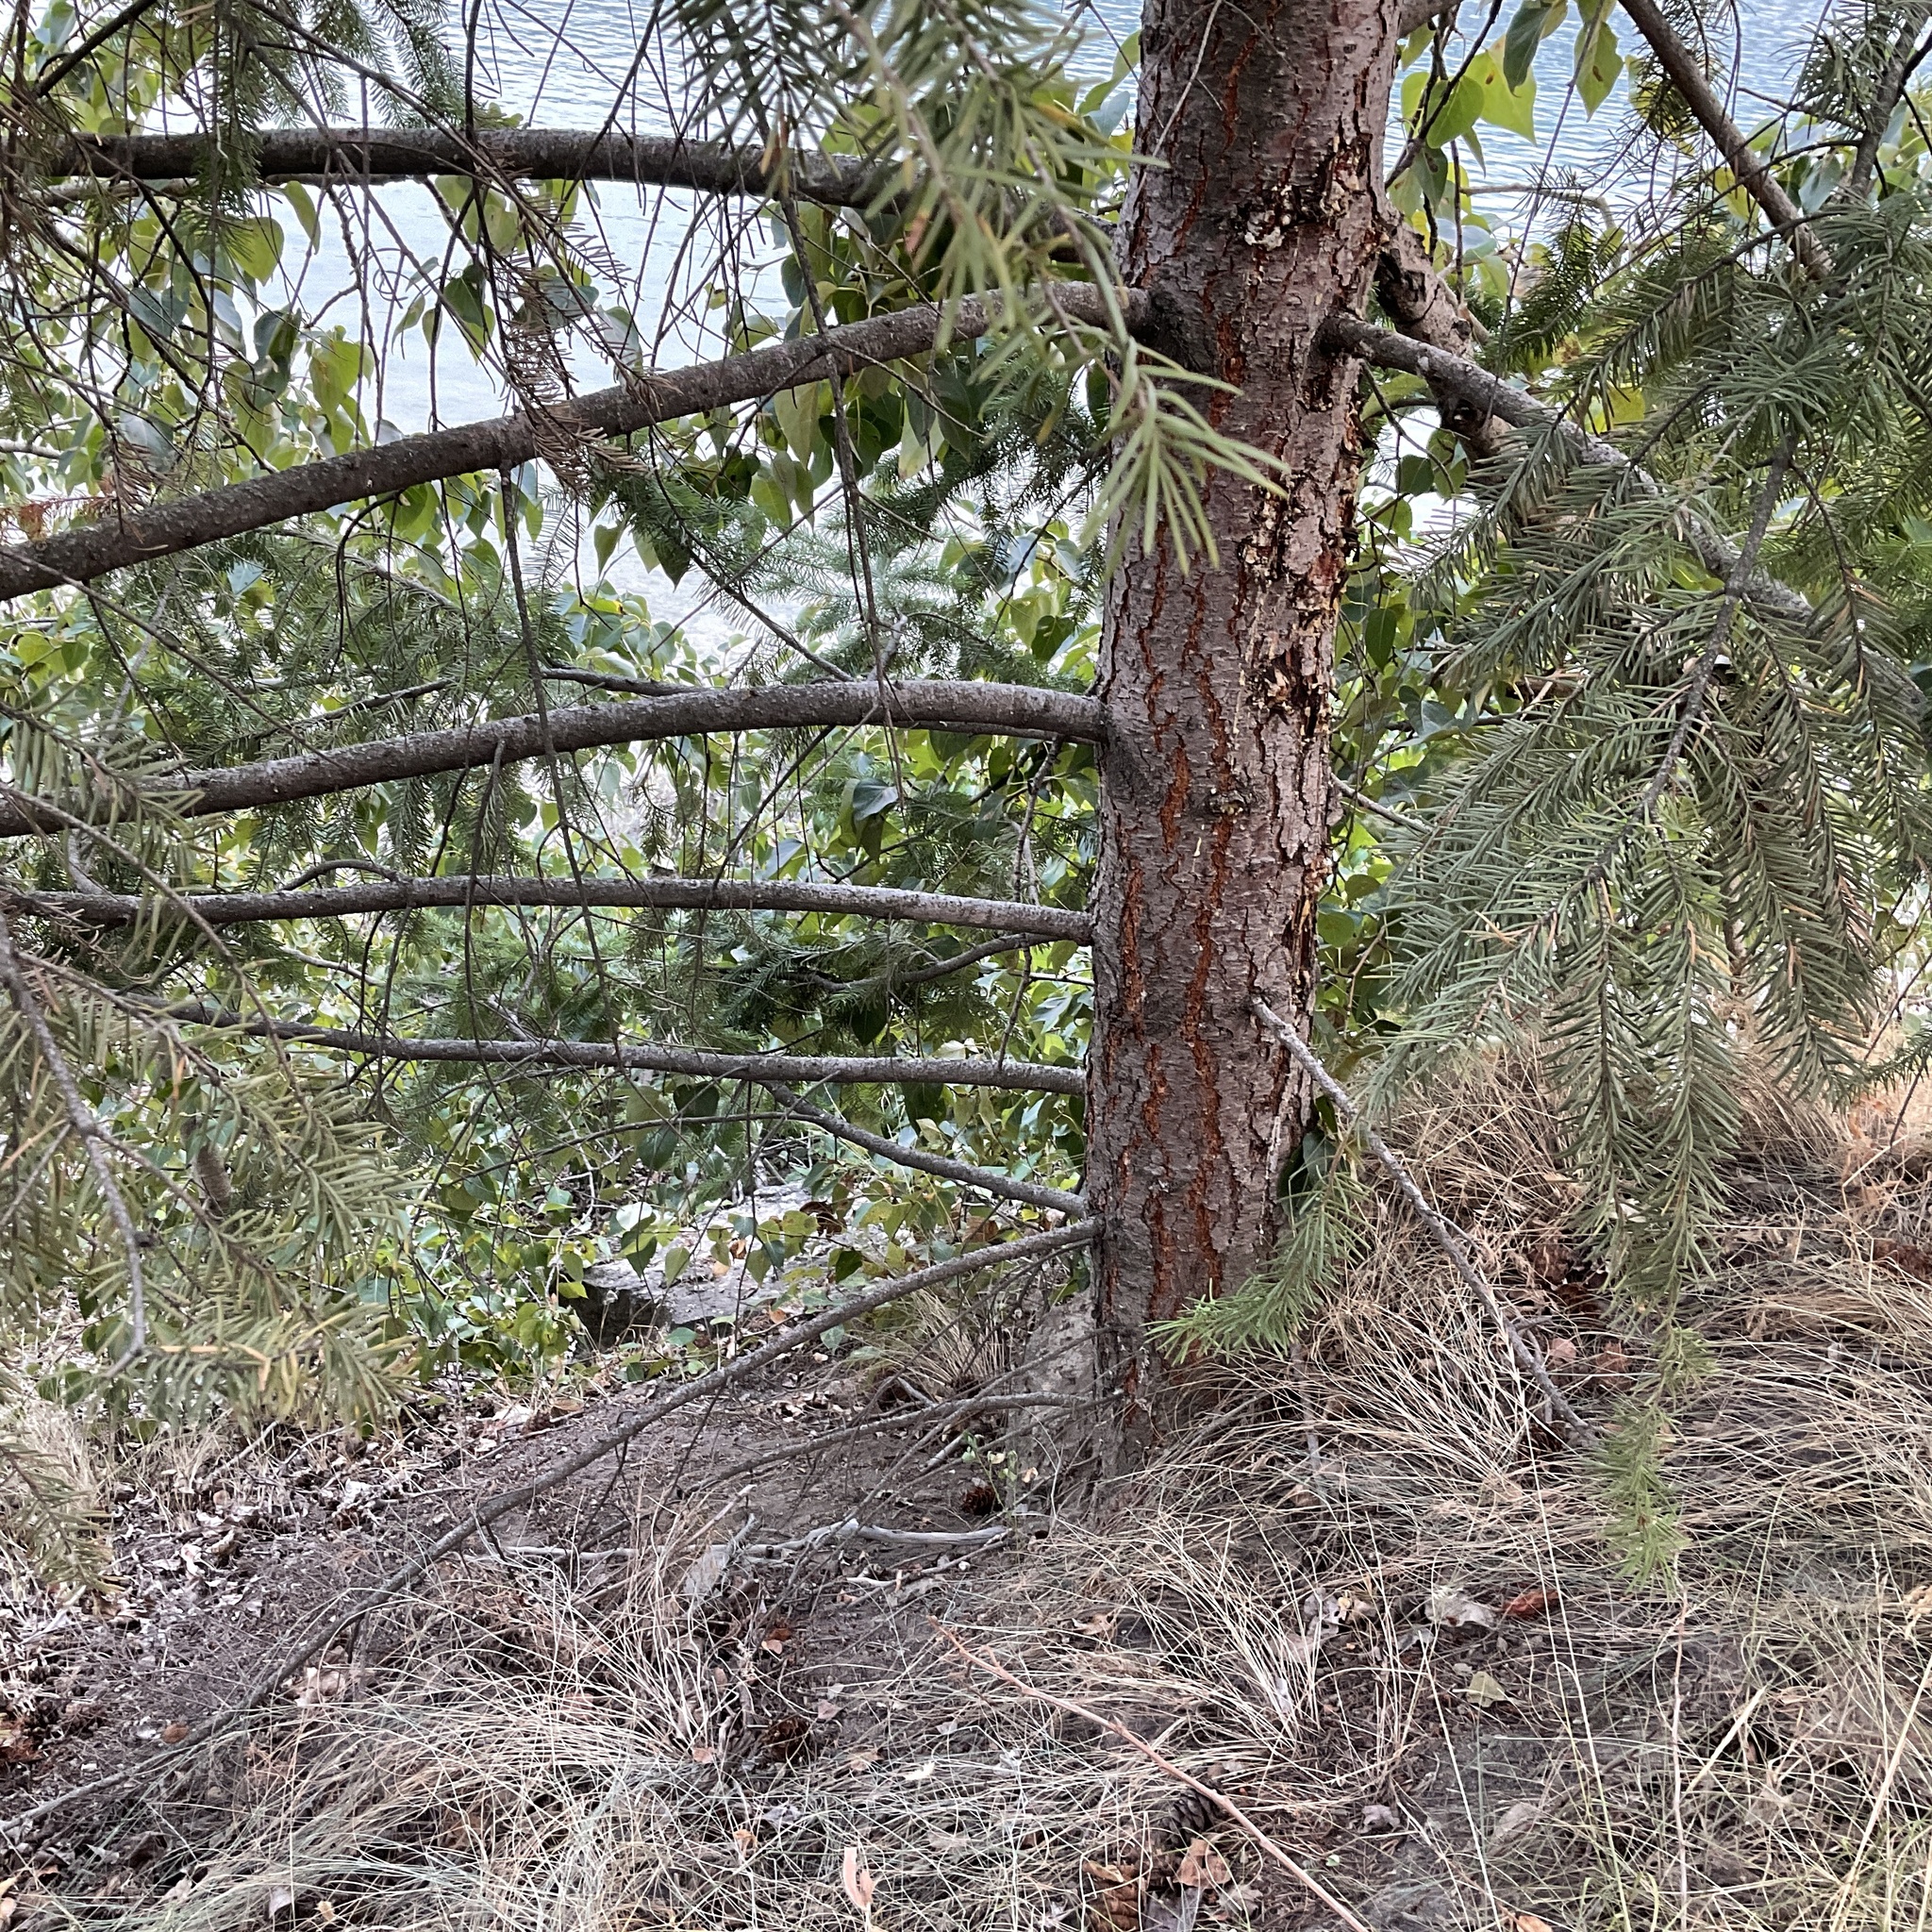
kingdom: Plantae
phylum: Tracheophyta
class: Pinopsida
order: Pinales
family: Pinaceae
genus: Pseudotsuga
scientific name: Pseudotsuga menziesii
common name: Douglas fir
